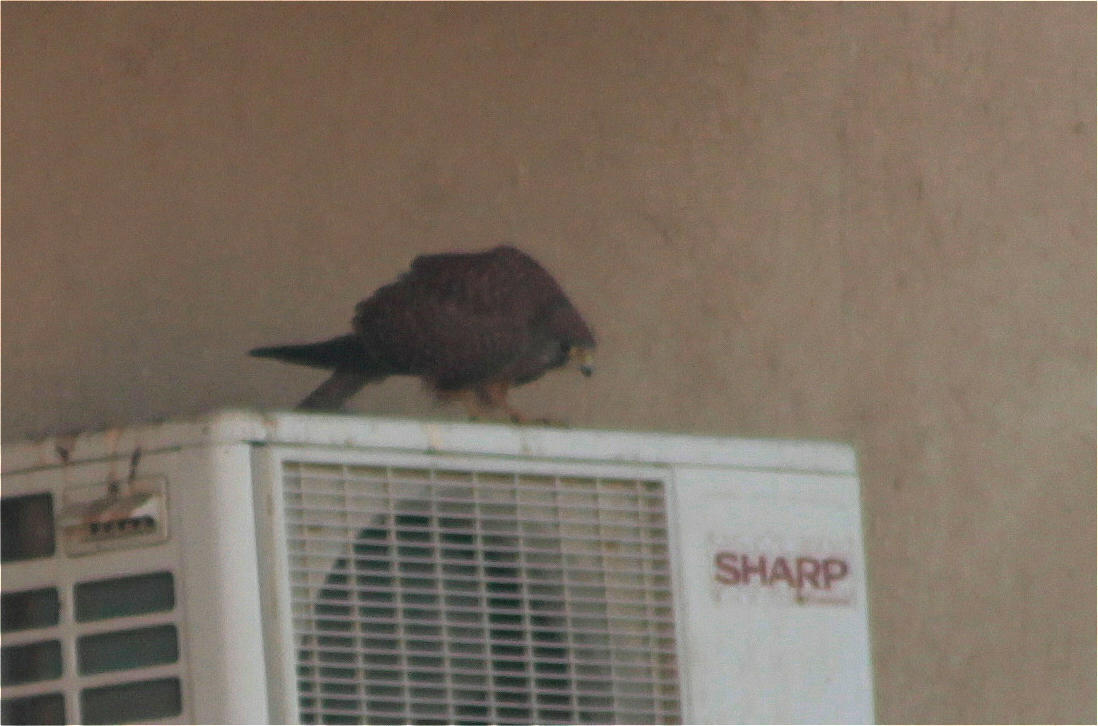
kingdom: Animalia
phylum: Chordata
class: Aves
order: Falconiformes
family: Falconidae
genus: Falco
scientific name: Falco tinnunculus
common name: Common kestrel
